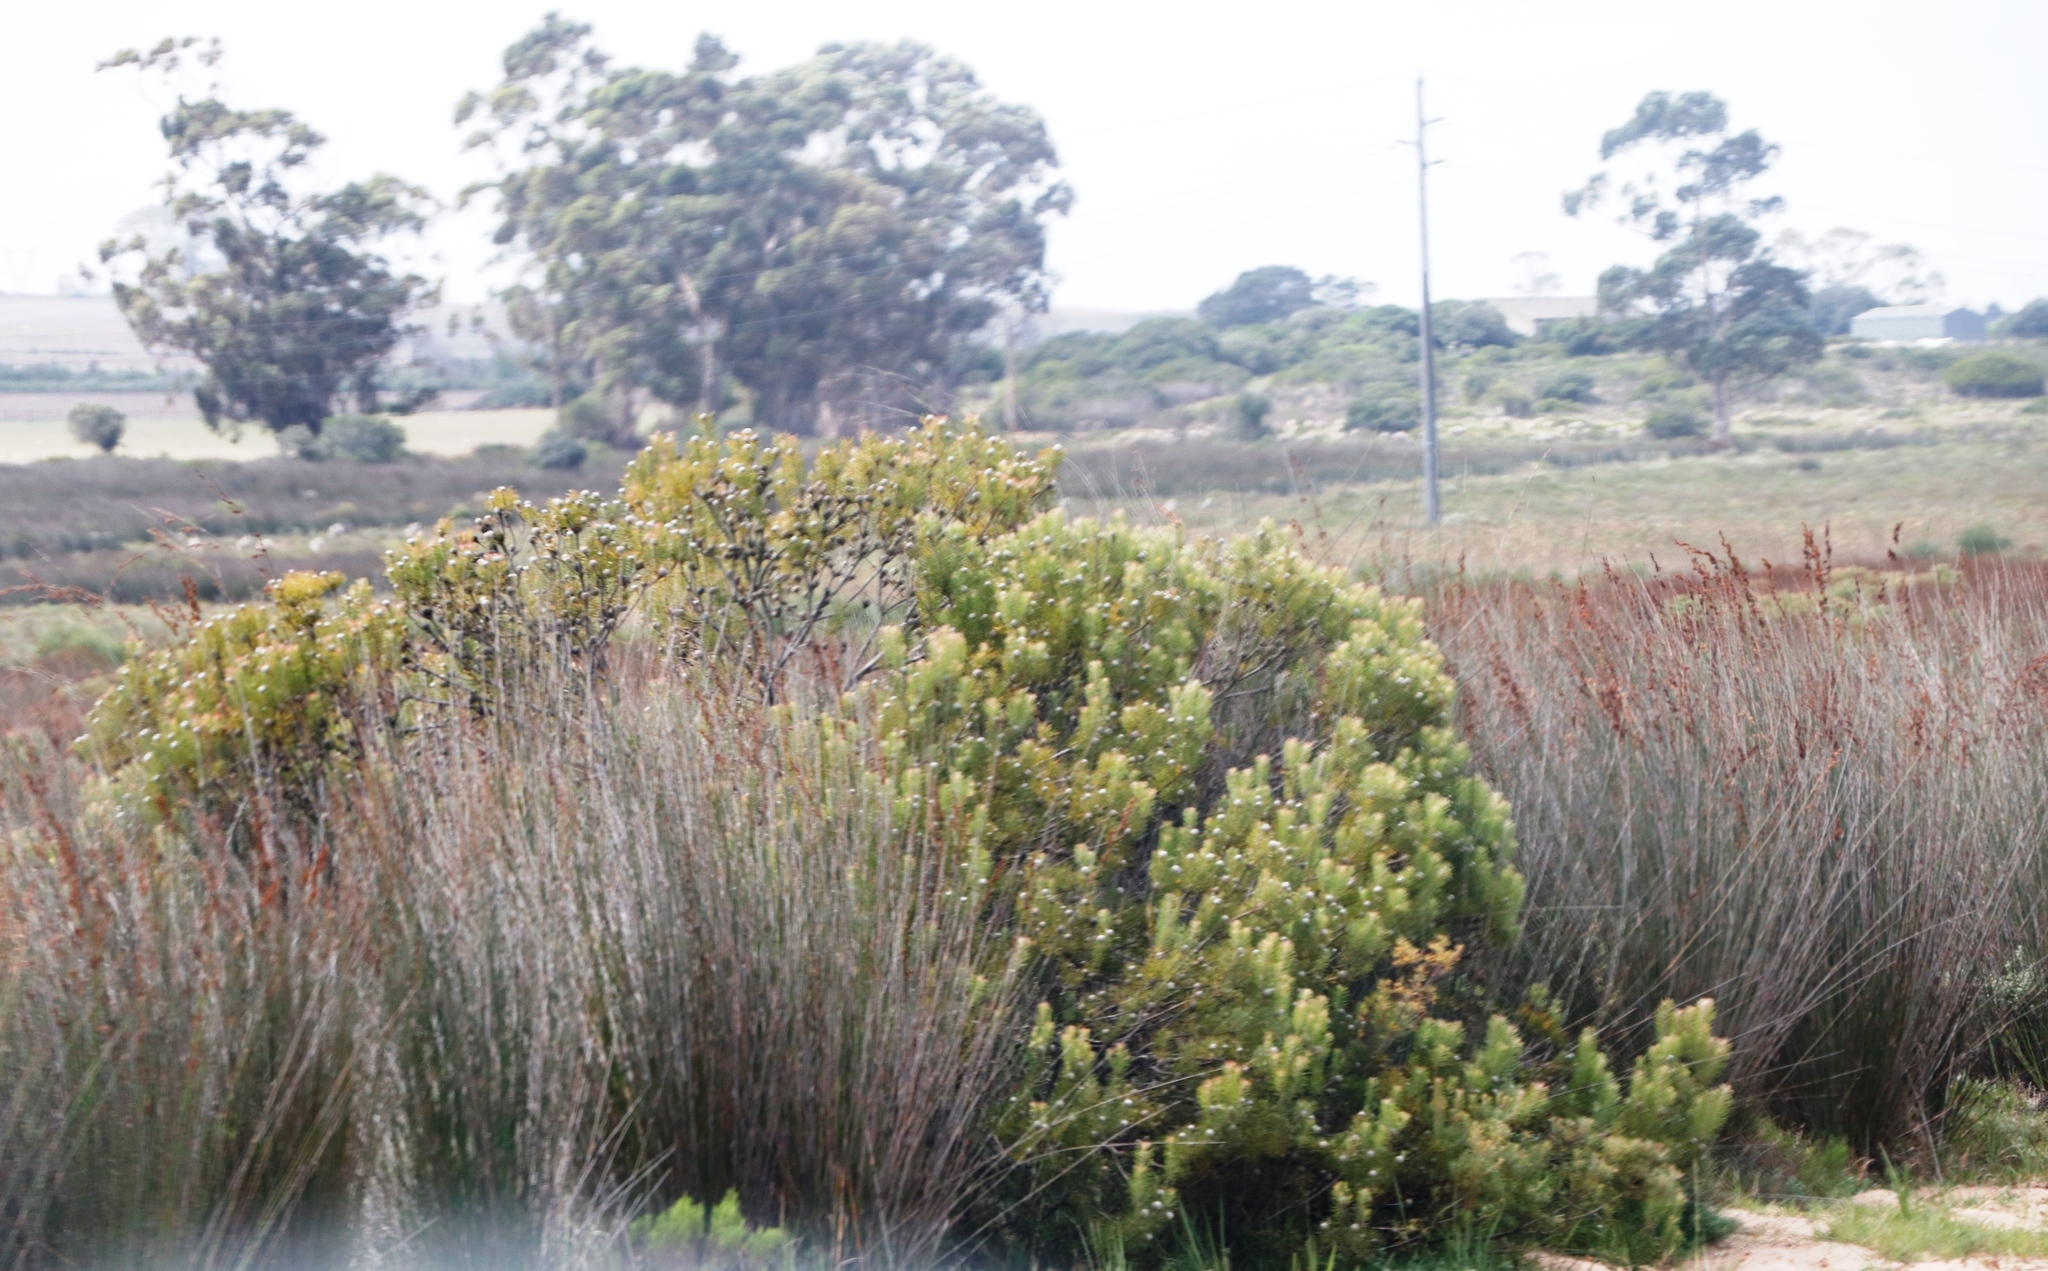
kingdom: Plantae
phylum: Tracheophyta
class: Magnoliopsida
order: Proteales
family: Proteaceae
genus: Leucadendron
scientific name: Leucadendron galpinii
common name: Hairless conebush
